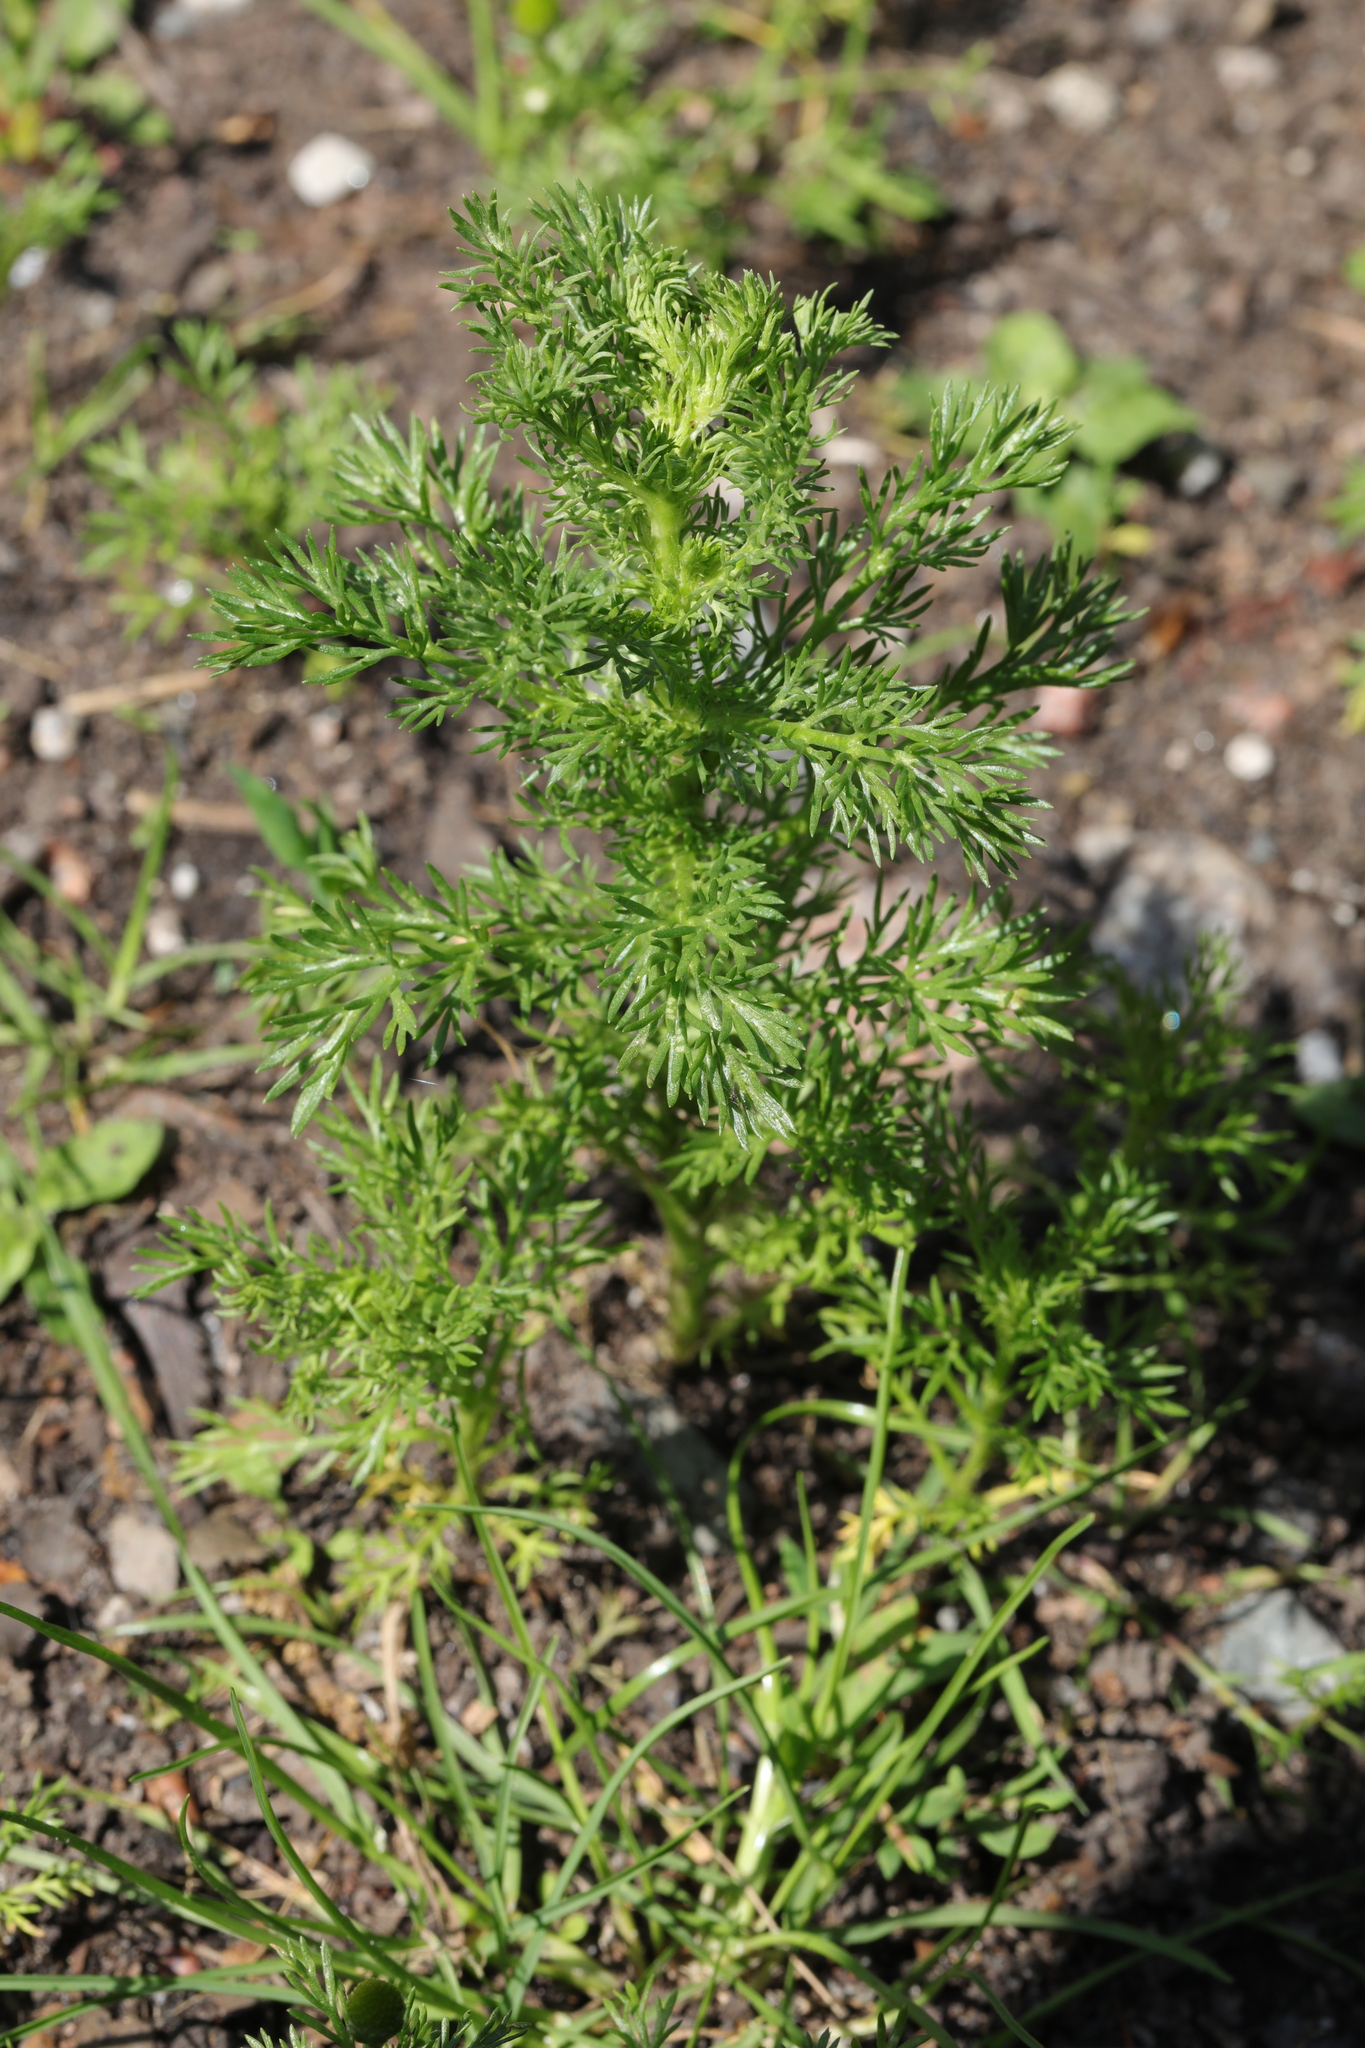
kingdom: Plantae
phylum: Tracheophyta
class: Magnoliopsida
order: Asterales
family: Asteraceae
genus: Matricaria
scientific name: Matricaria discoidea
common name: Disc mayweed
